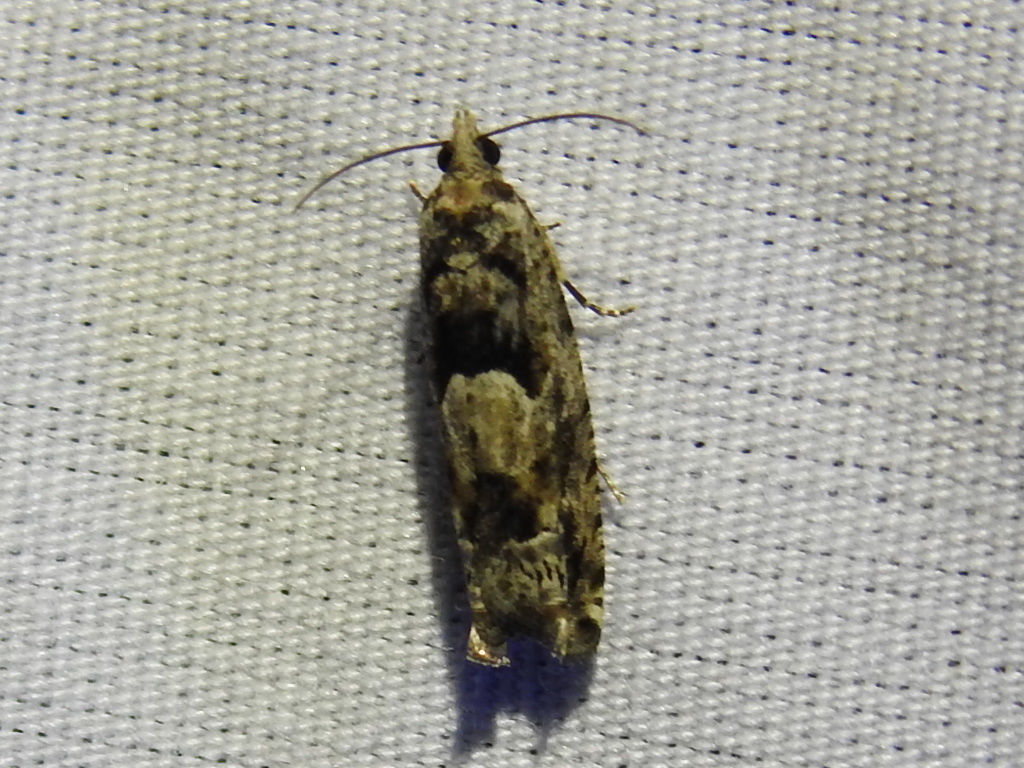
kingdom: Animalia
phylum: Arthropoda
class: Insecta
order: Lepidoptera
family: Tortricidae
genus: Pseudexentera
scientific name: Pseudexentera hodsoni
